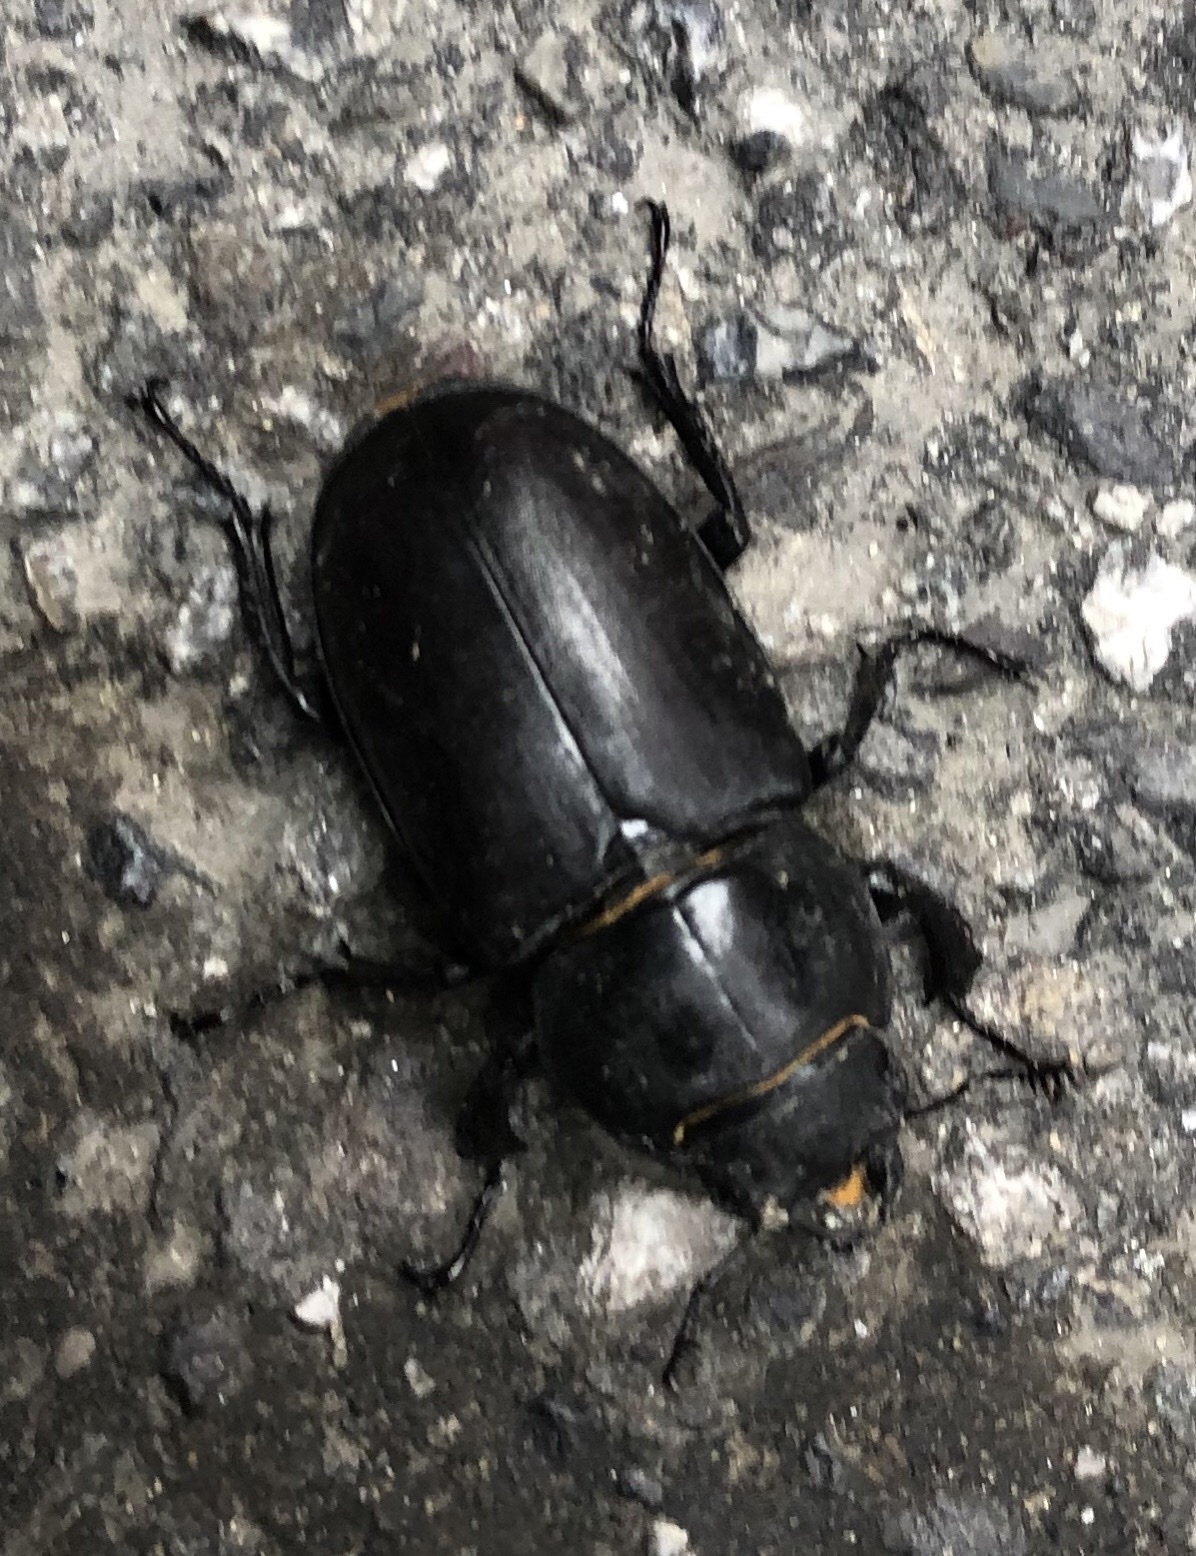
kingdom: Animalia
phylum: Arthropoda
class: Insecta
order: Coleoptera
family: Lucanidae
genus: Lucanus
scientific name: Lucanus cervus
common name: Stag beetle
